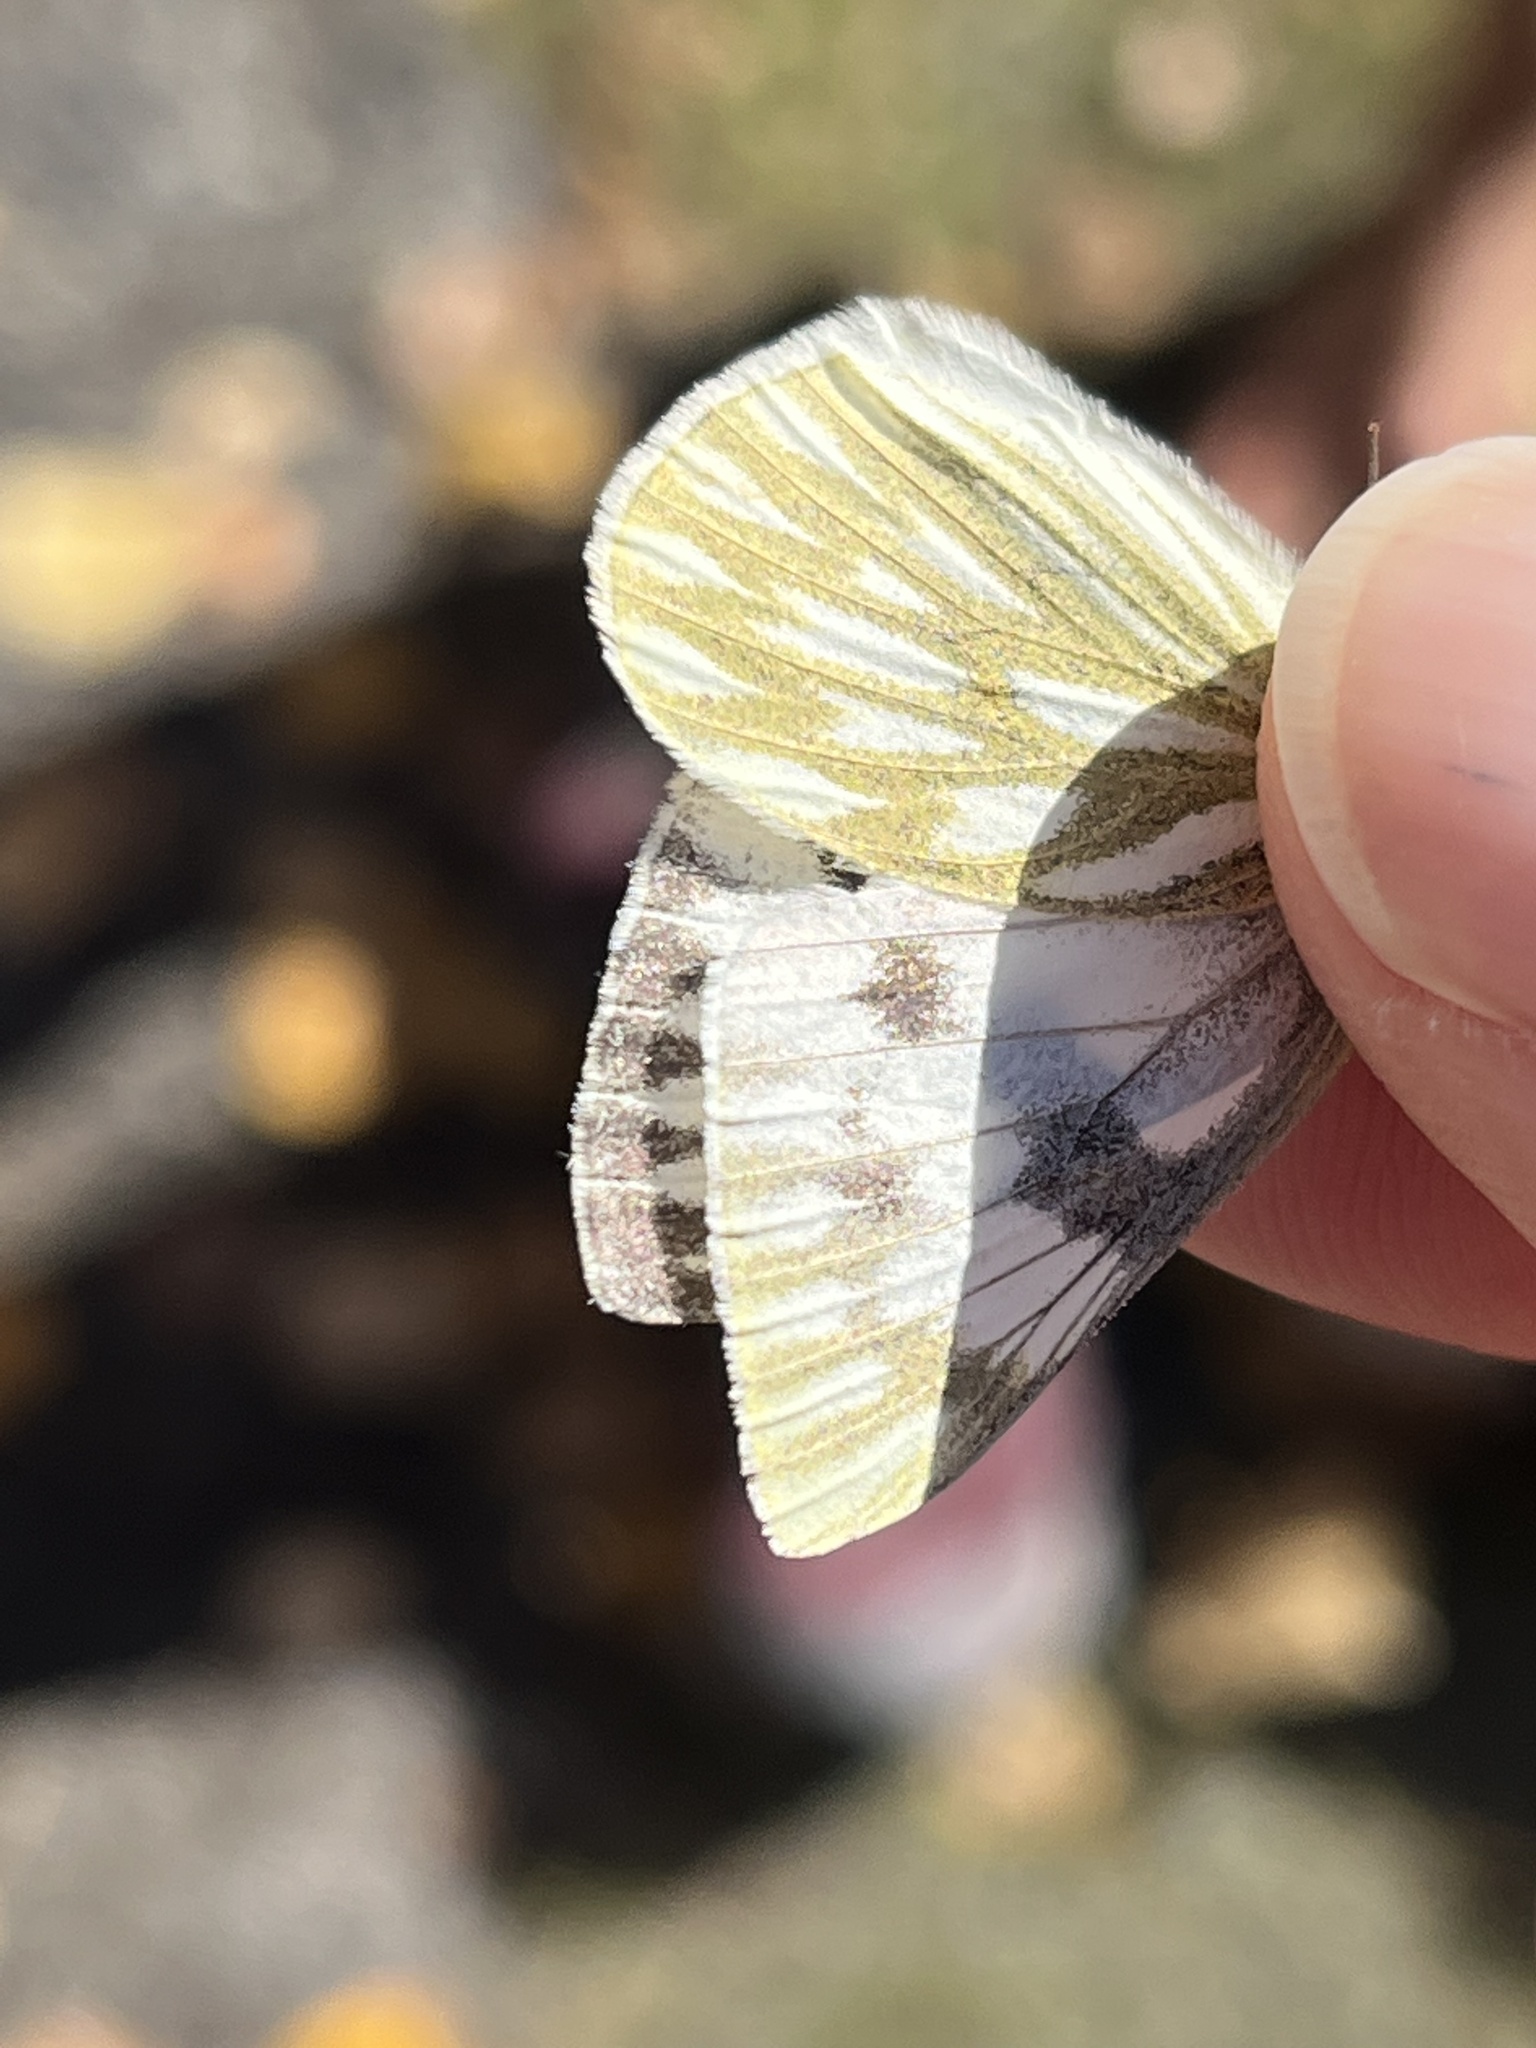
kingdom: Animalia
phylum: Arthropoda
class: Insecta
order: Lepidoptera
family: Pieridae
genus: Pontia
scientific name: Pontia occidentalis
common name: Western white
